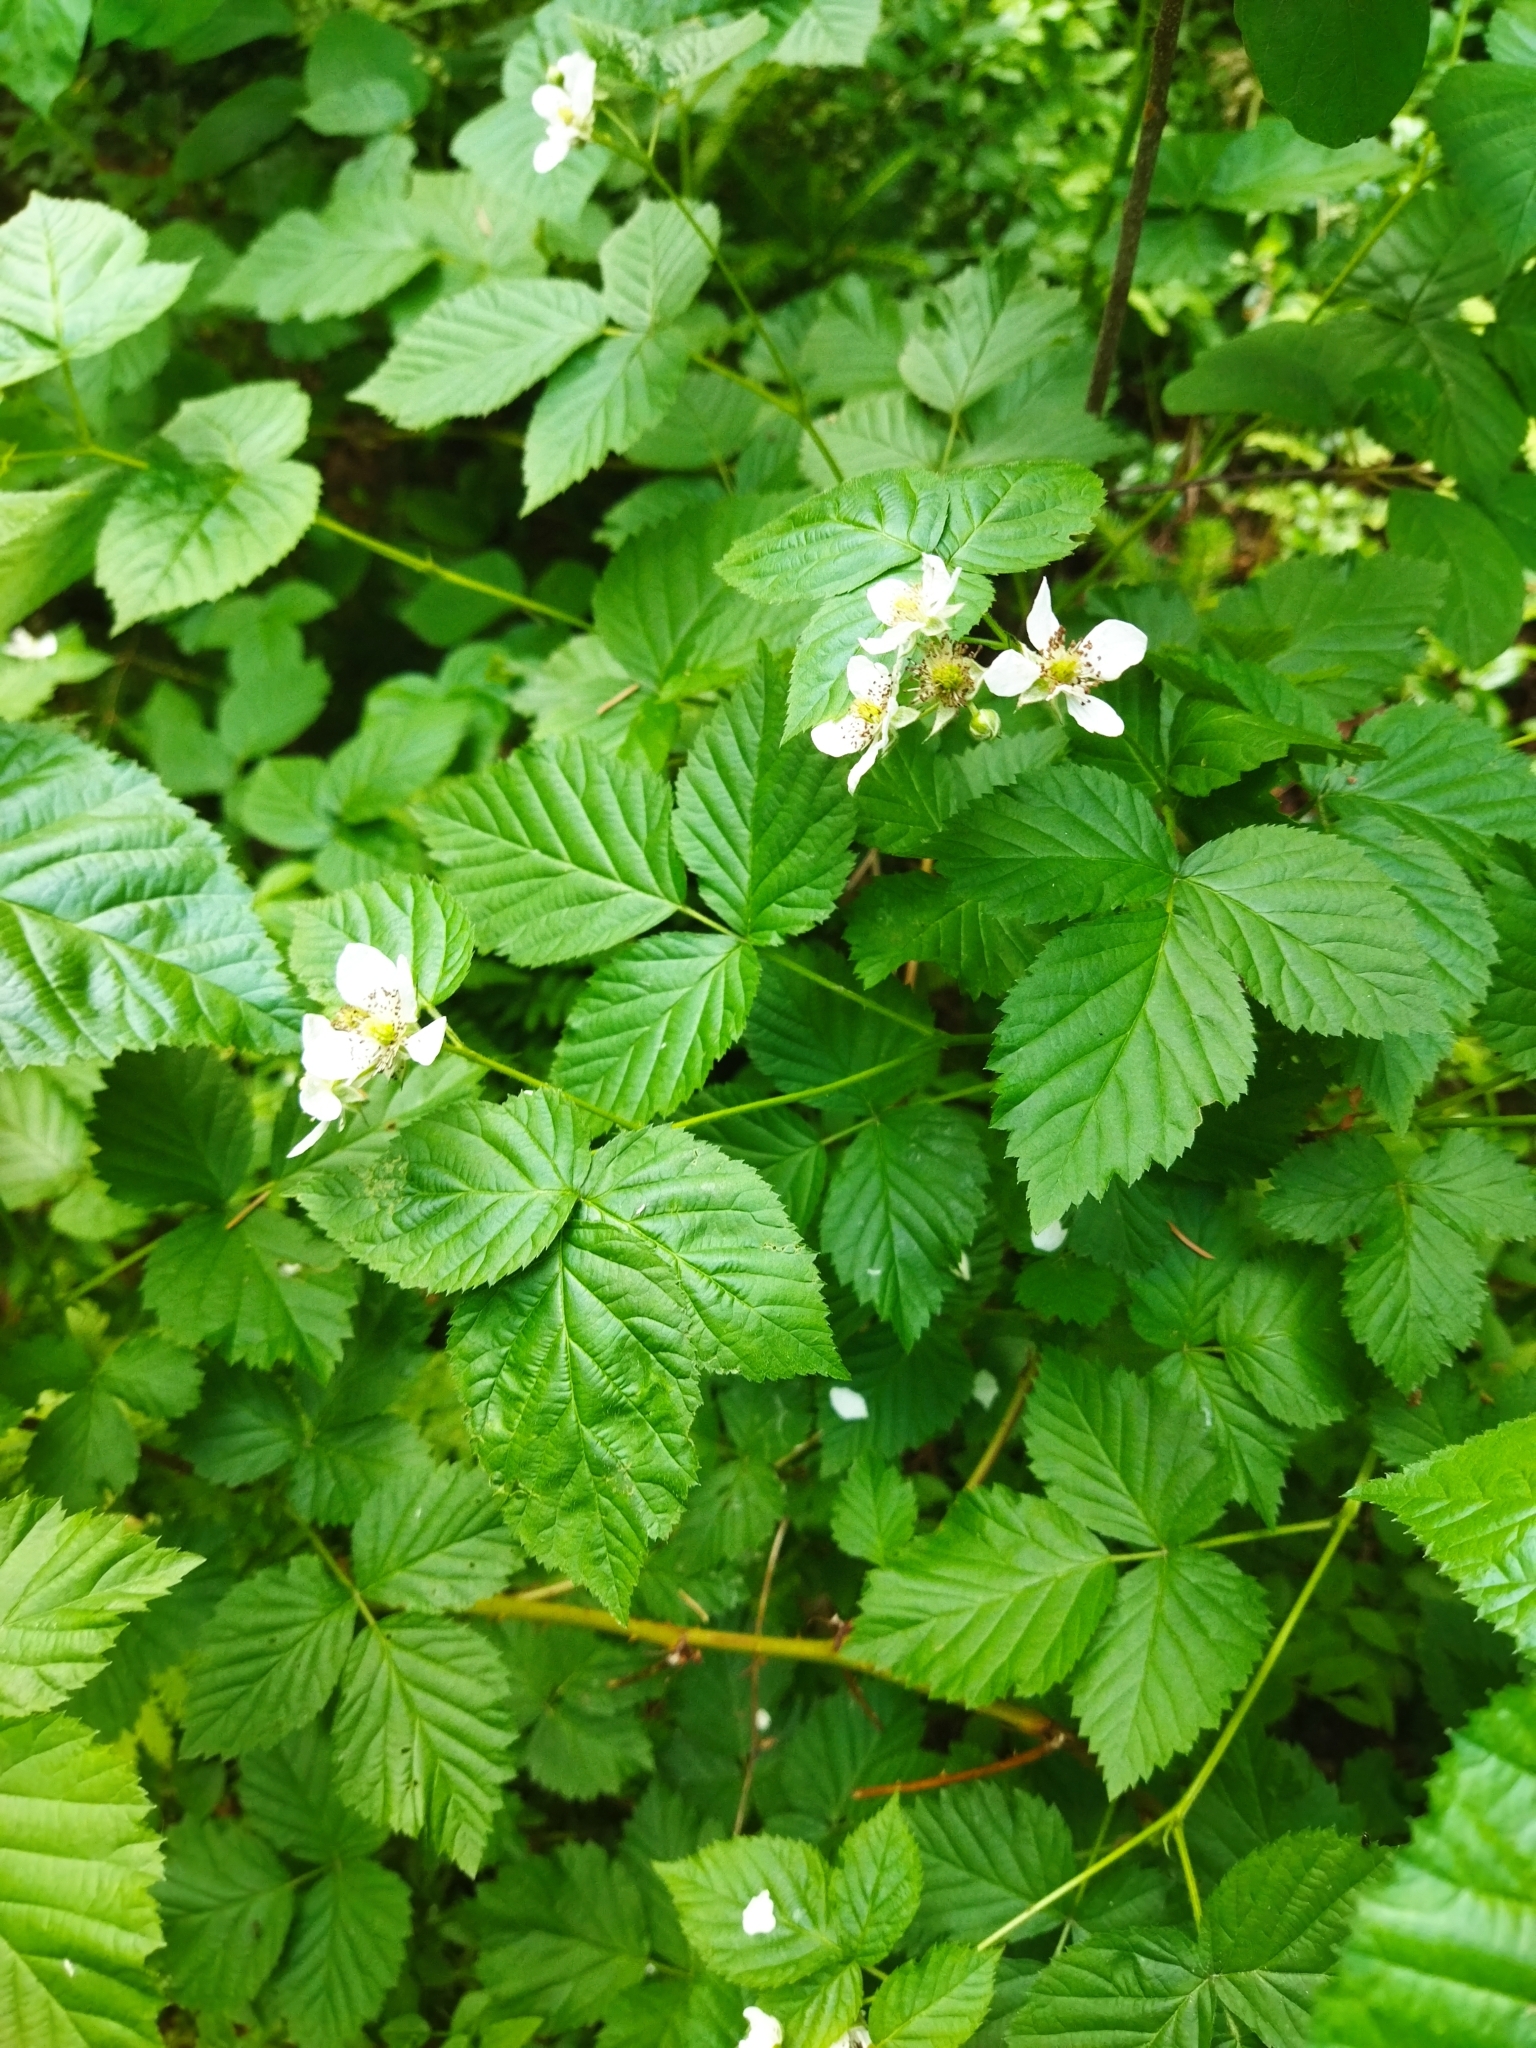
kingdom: Plantae
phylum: Tracheophyta
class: Magnoliopsida
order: Rosales
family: Rosaceae
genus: Rubus
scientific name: Rubus polonicus
